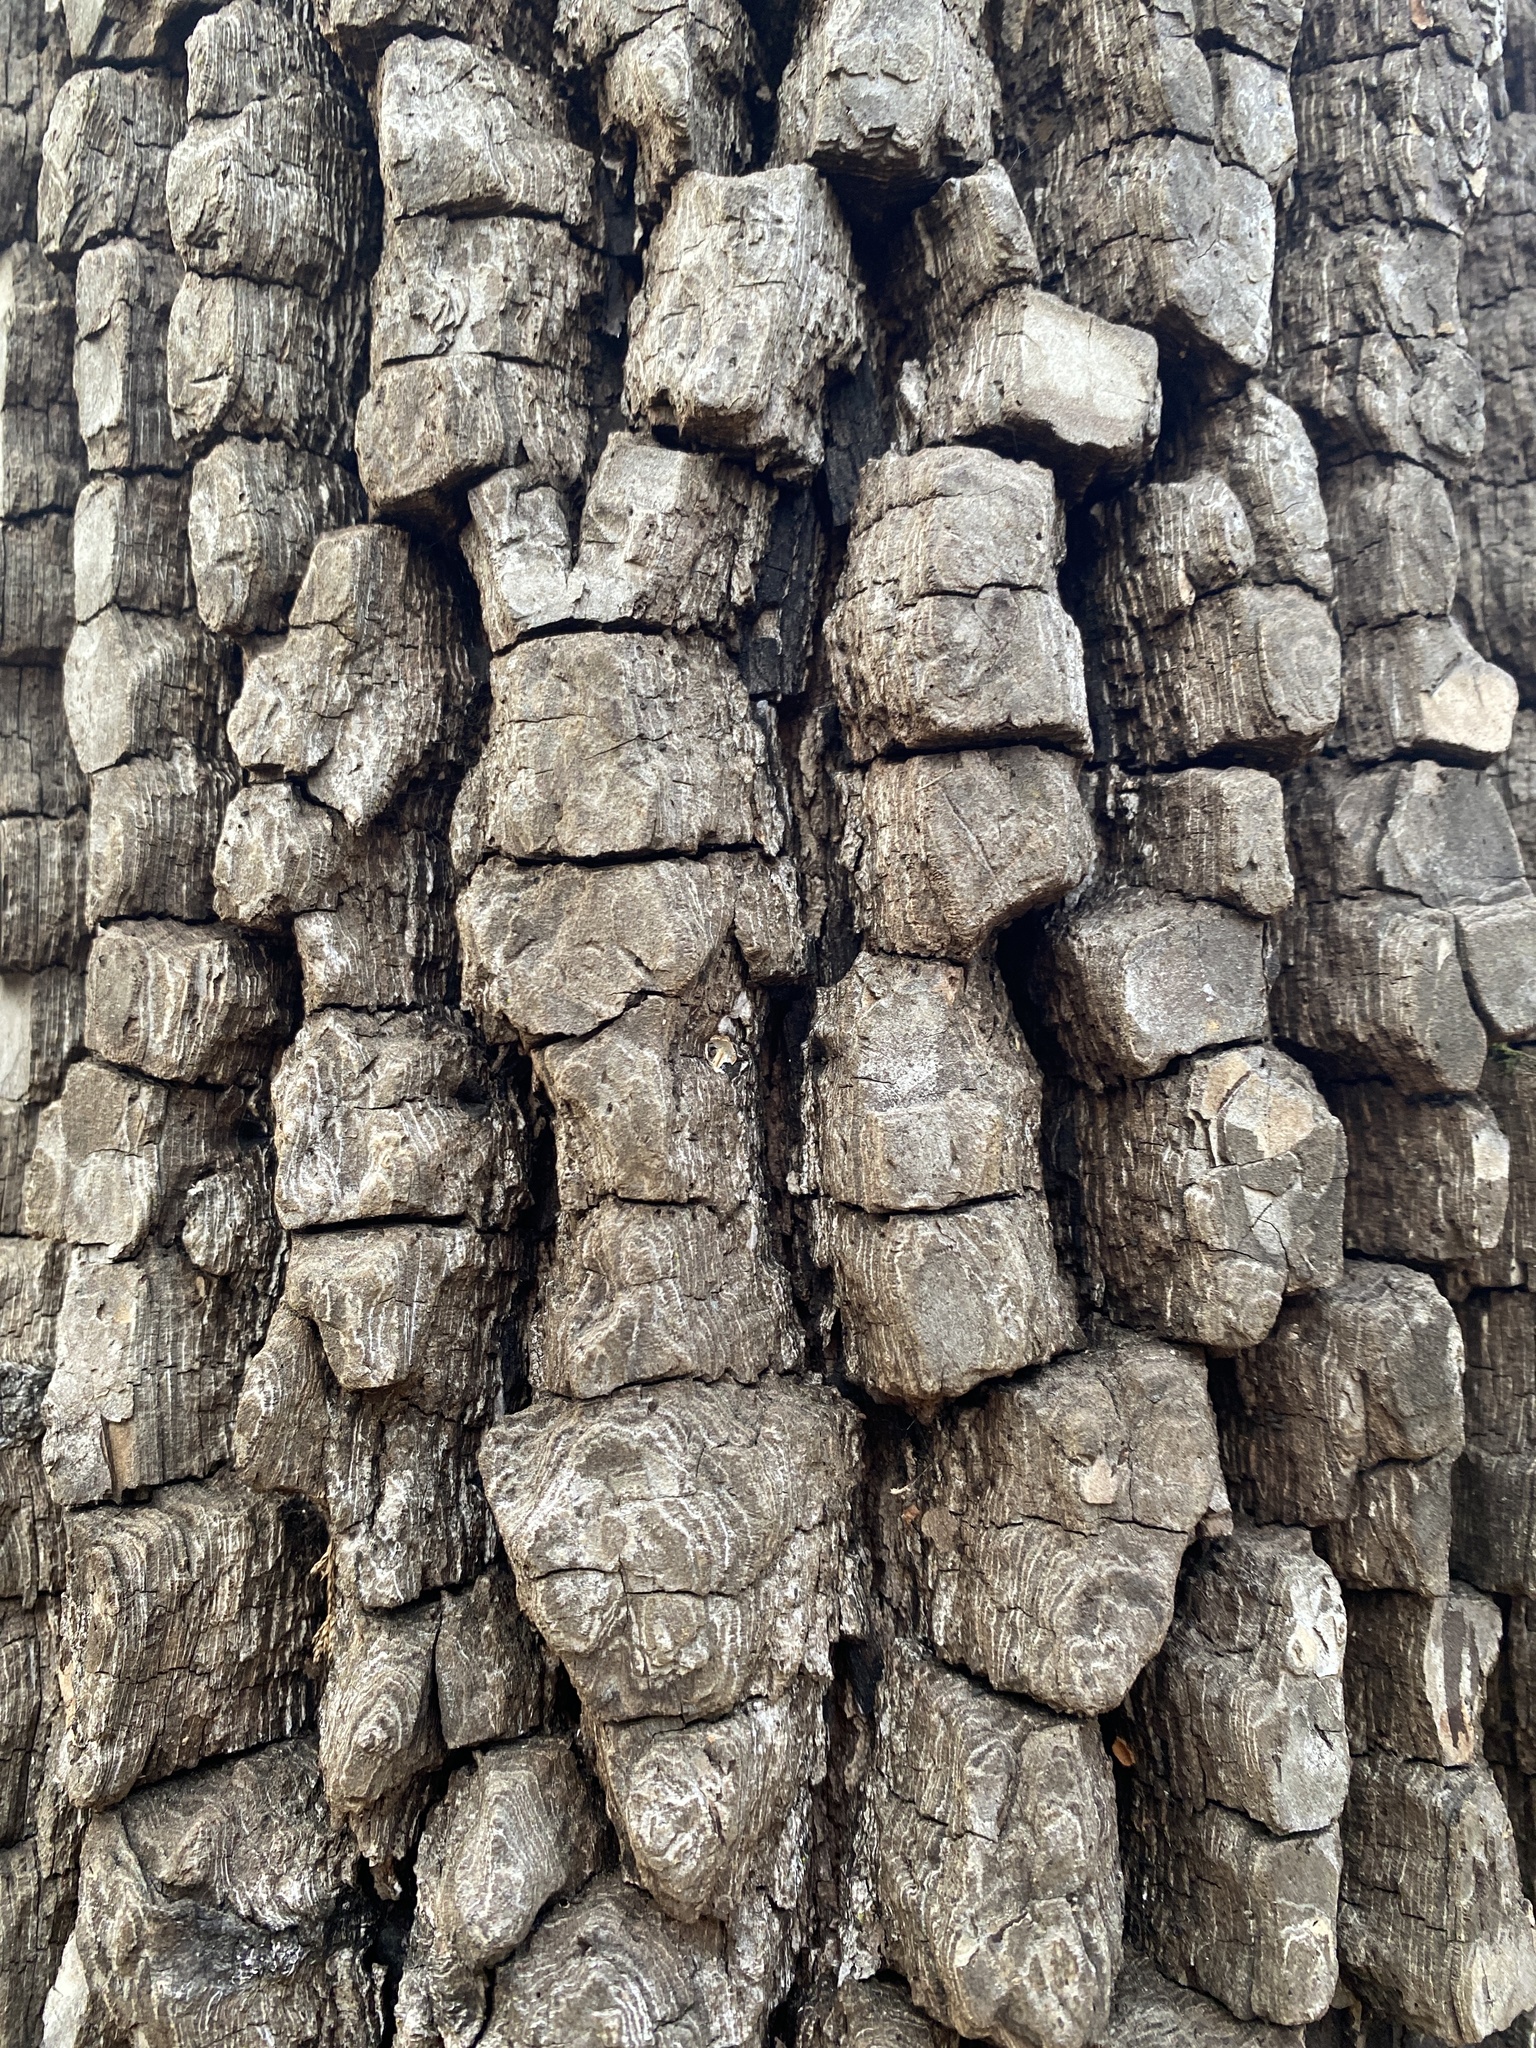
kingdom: Plantae
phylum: Tracheophyta
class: Magnoliopsida
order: Ericales
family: Ebenaceae
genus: Diospyros
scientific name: Diospyros virginiana
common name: Persimmon
